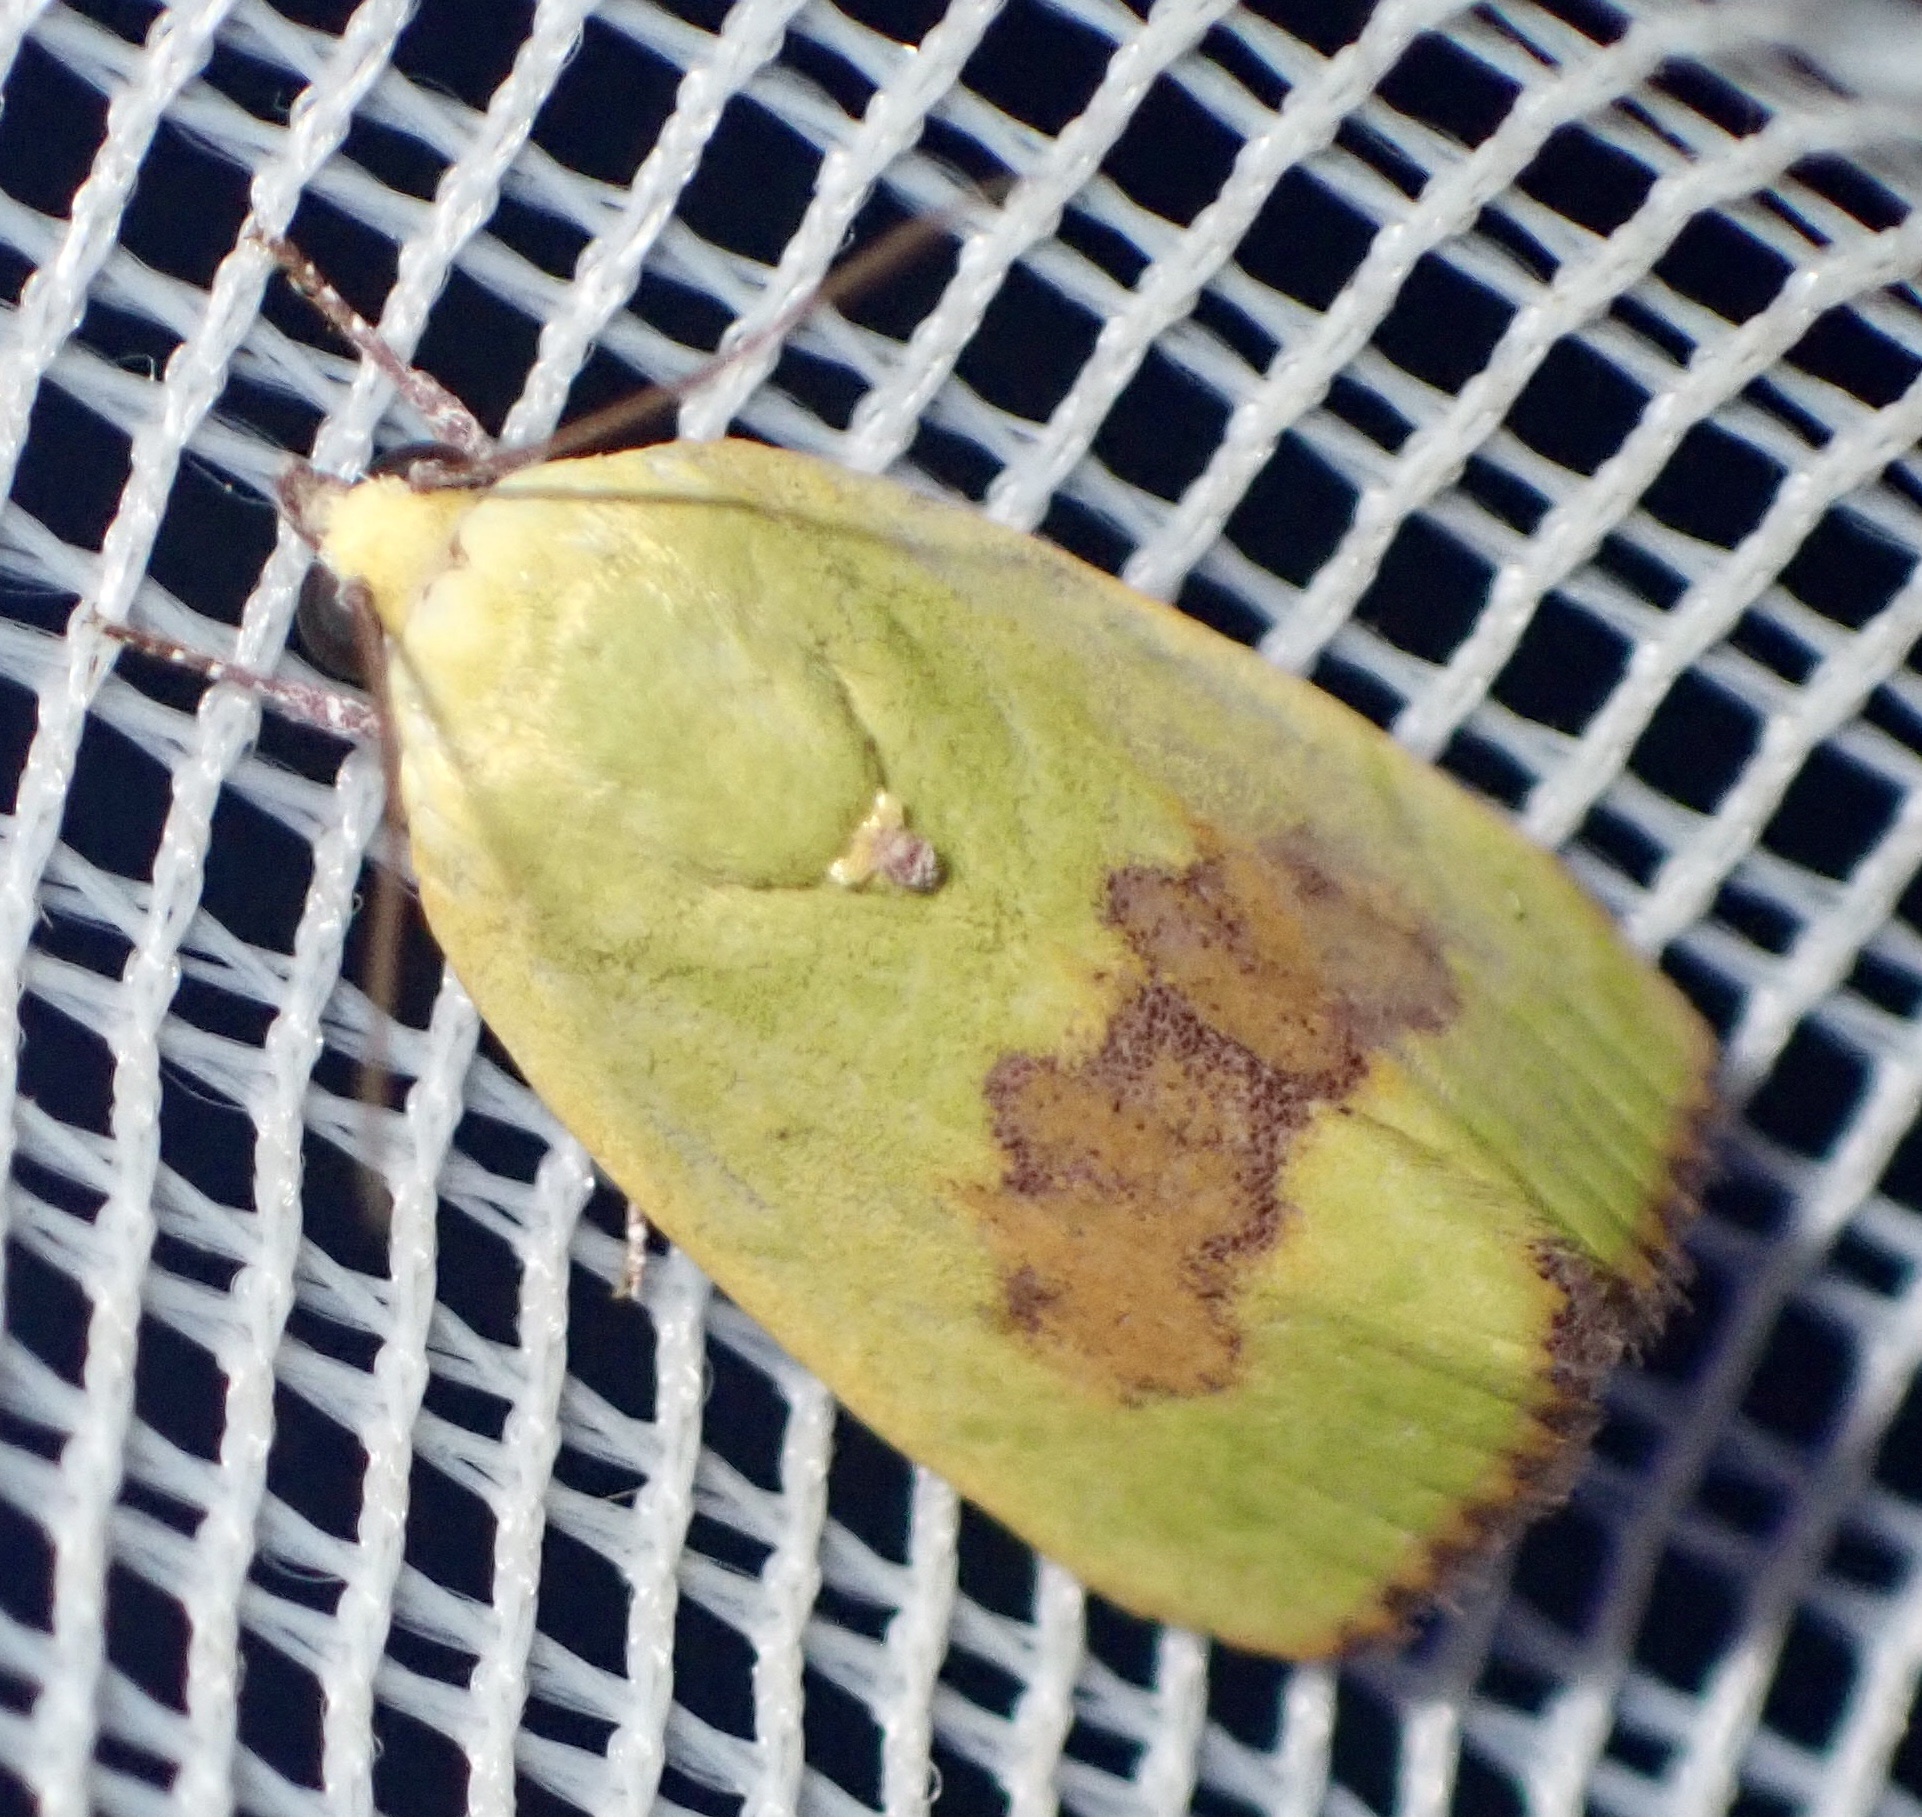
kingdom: Animalia
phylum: Arthropoda
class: Insecta
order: Lepidoptera
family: Nolidae
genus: Earias
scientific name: Earias biplaga
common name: Spiny bollworm
